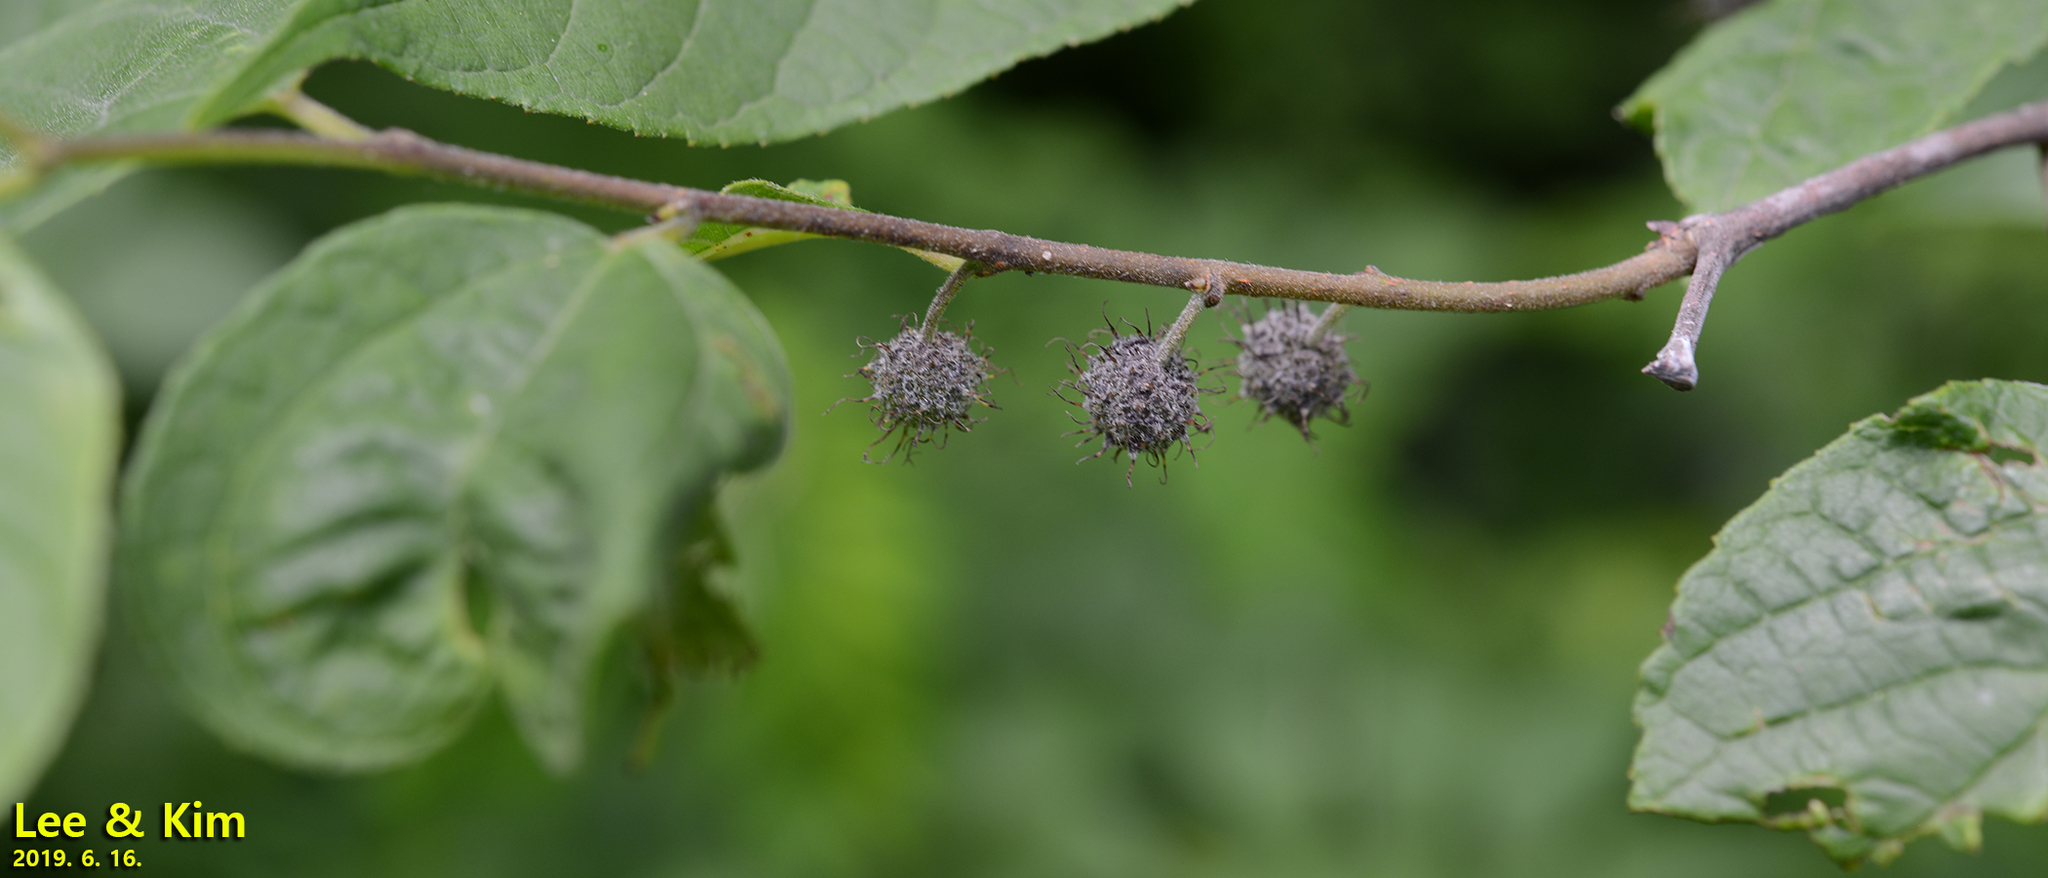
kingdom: Plantae
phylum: Tracheophyta
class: Magnoliopsida
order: Rosales
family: Moraceae
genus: Broussonetia
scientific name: Broussonetia papyrifera
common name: Paper mulberry
